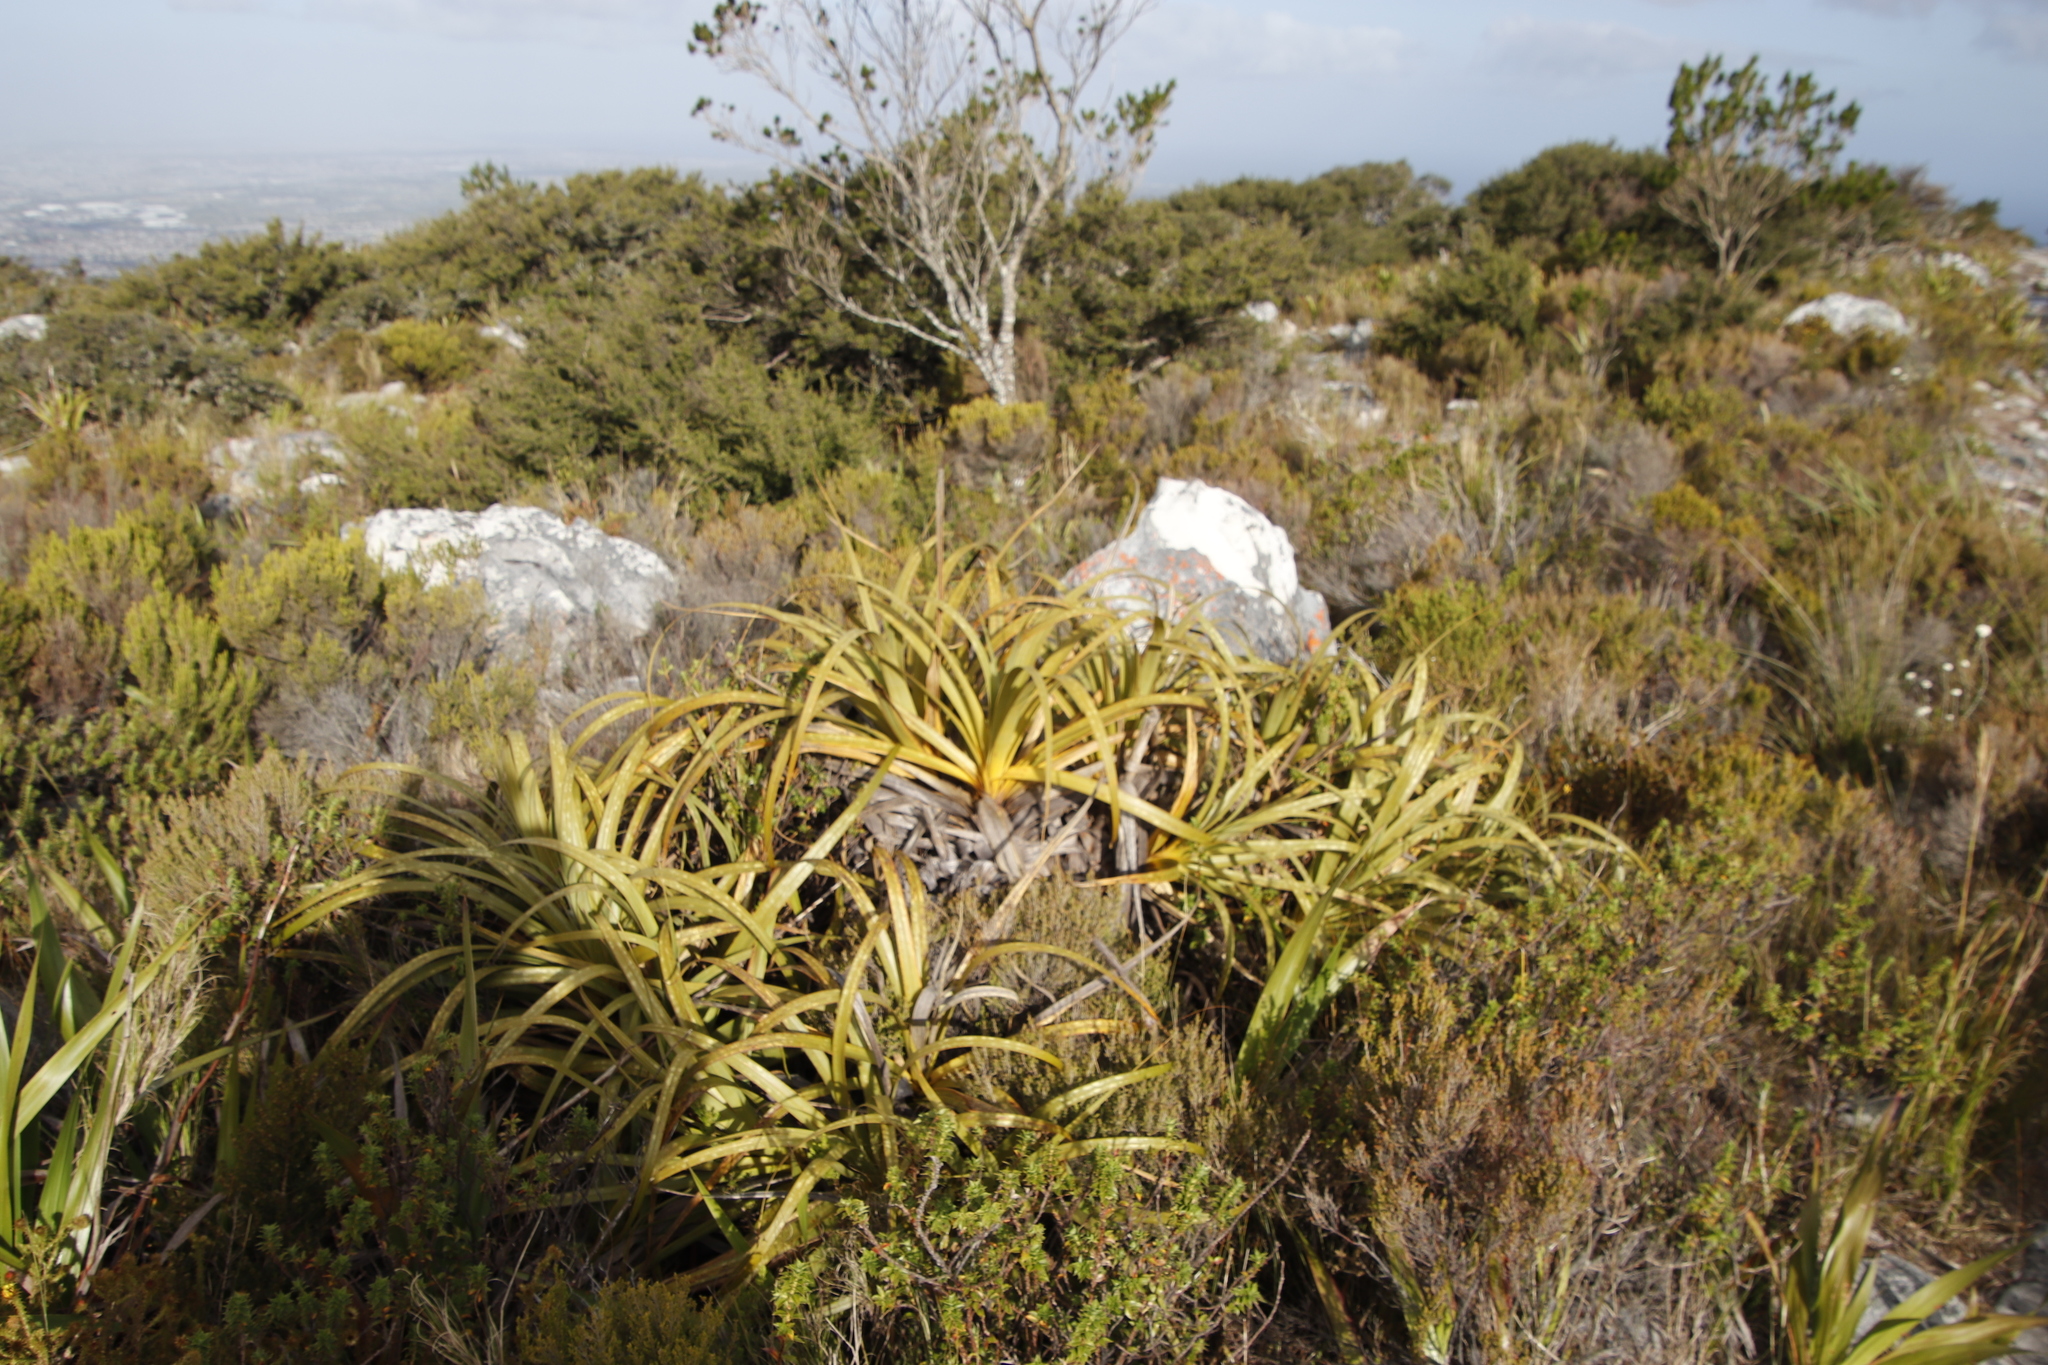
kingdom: Plantae
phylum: Tracheophyta
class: Liliopsida
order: Poales
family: Cyperaceae
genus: Tetraria
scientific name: Tetraria thermalis
